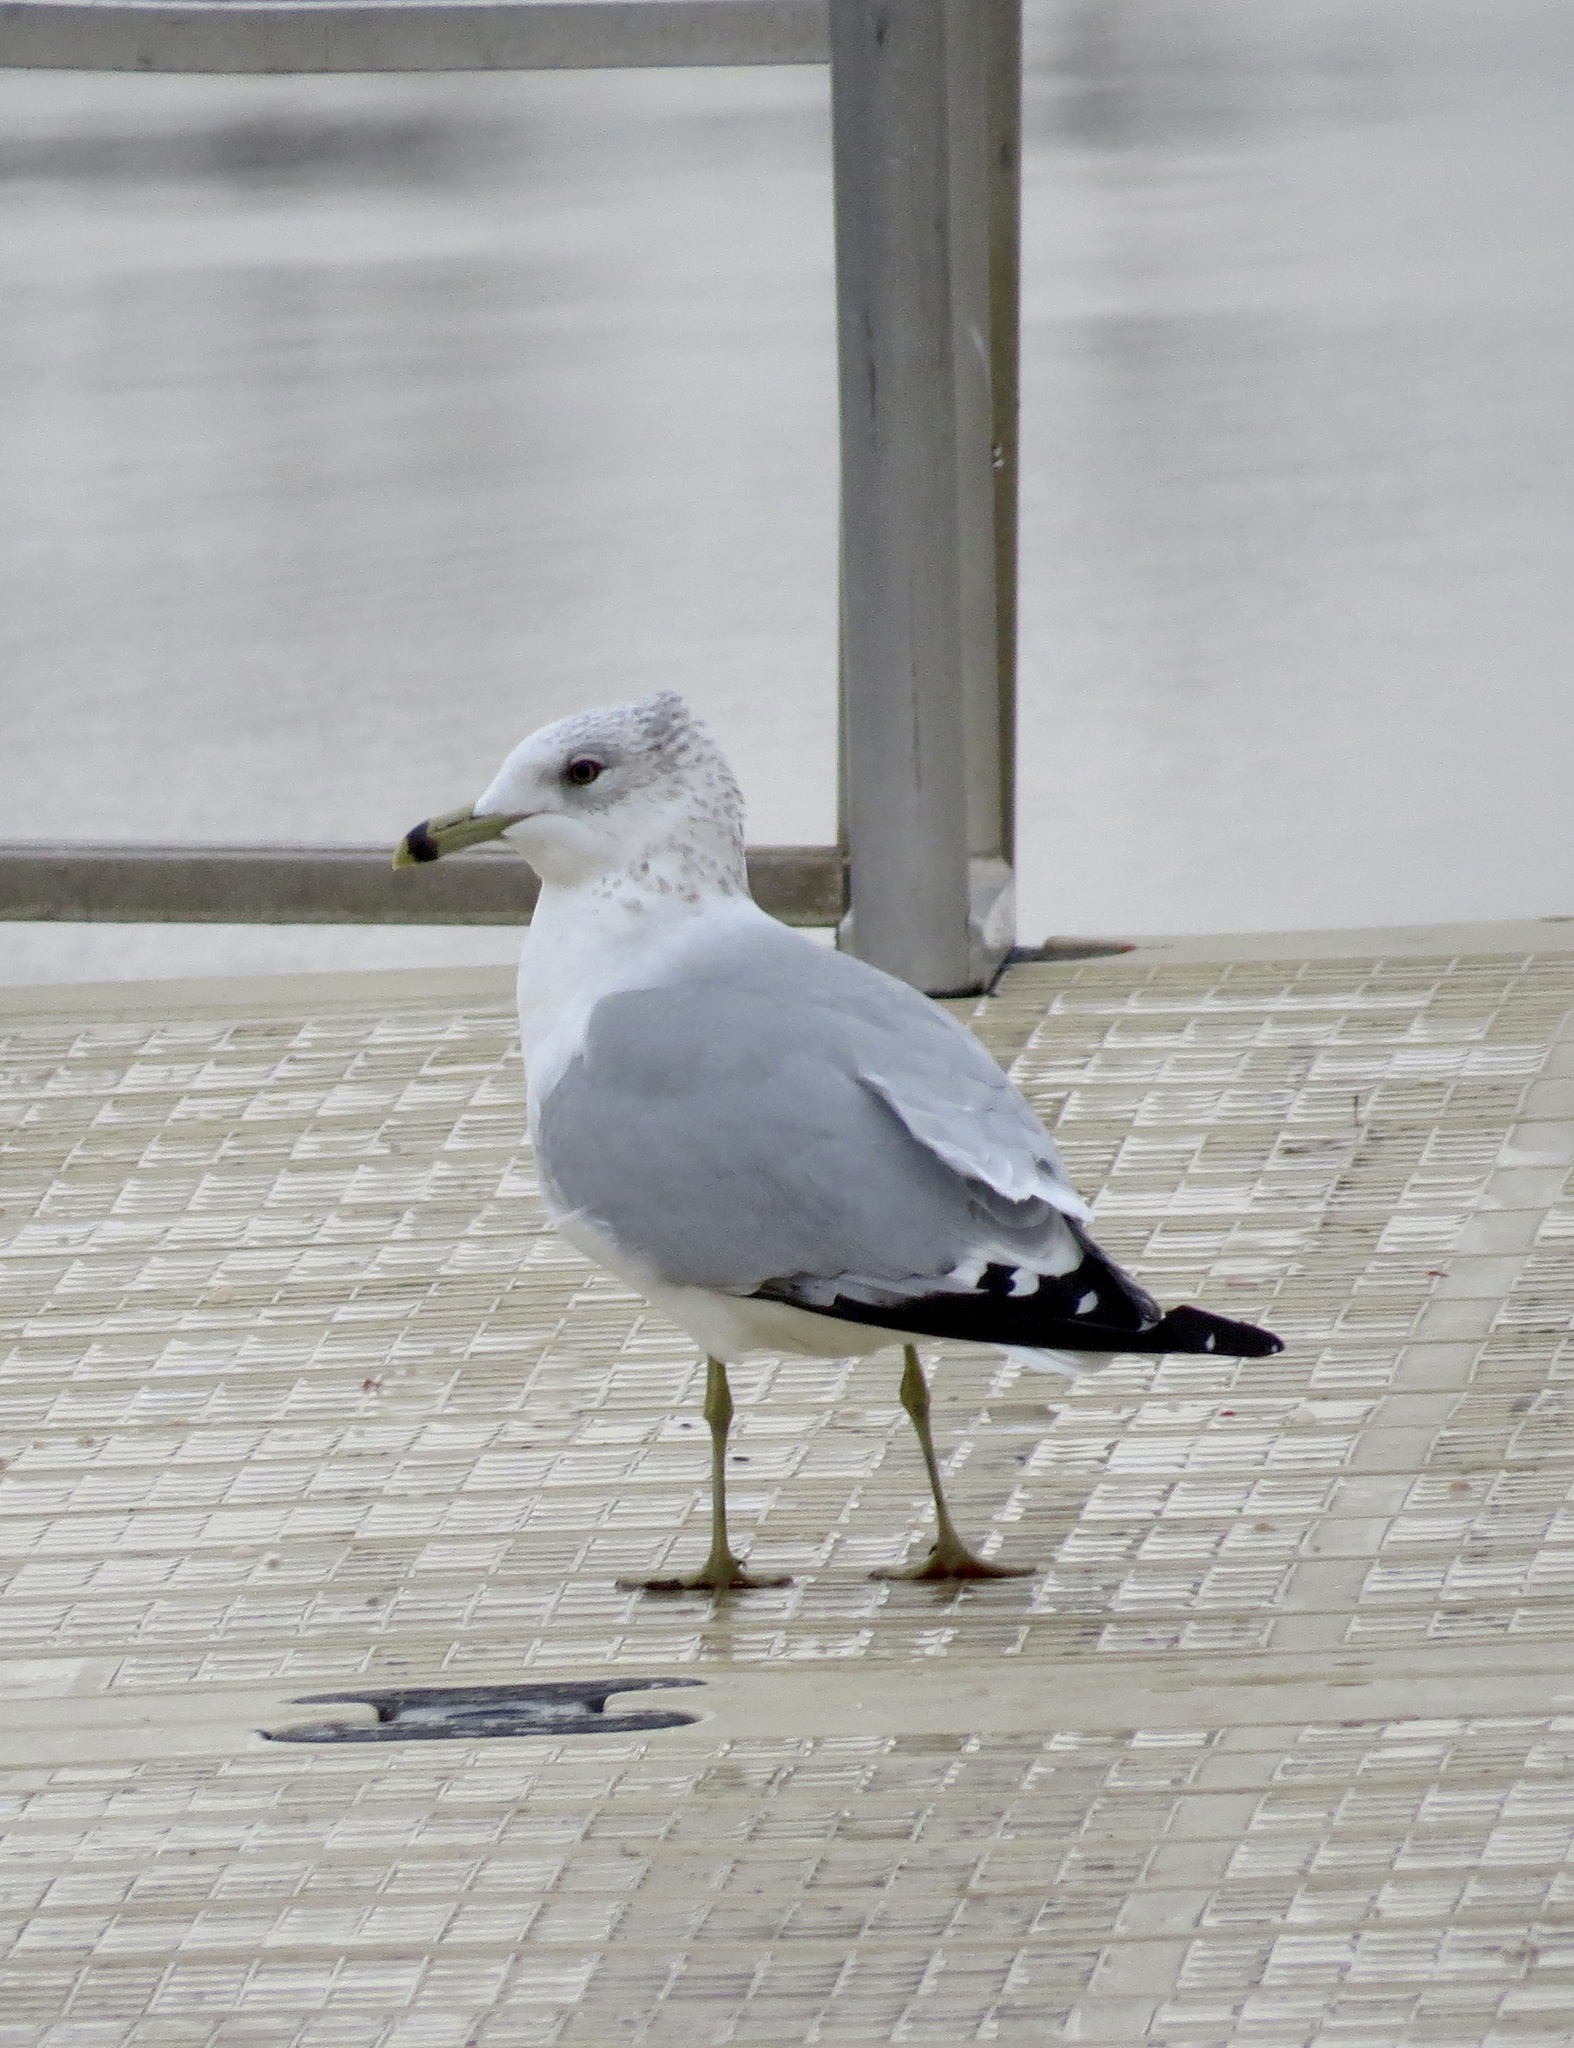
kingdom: Animalia
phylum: Chordata
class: Aves
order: Charadriiformes
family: Laridae
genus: Larus
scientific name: Larus delawarensis
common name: Ring-billed gull
